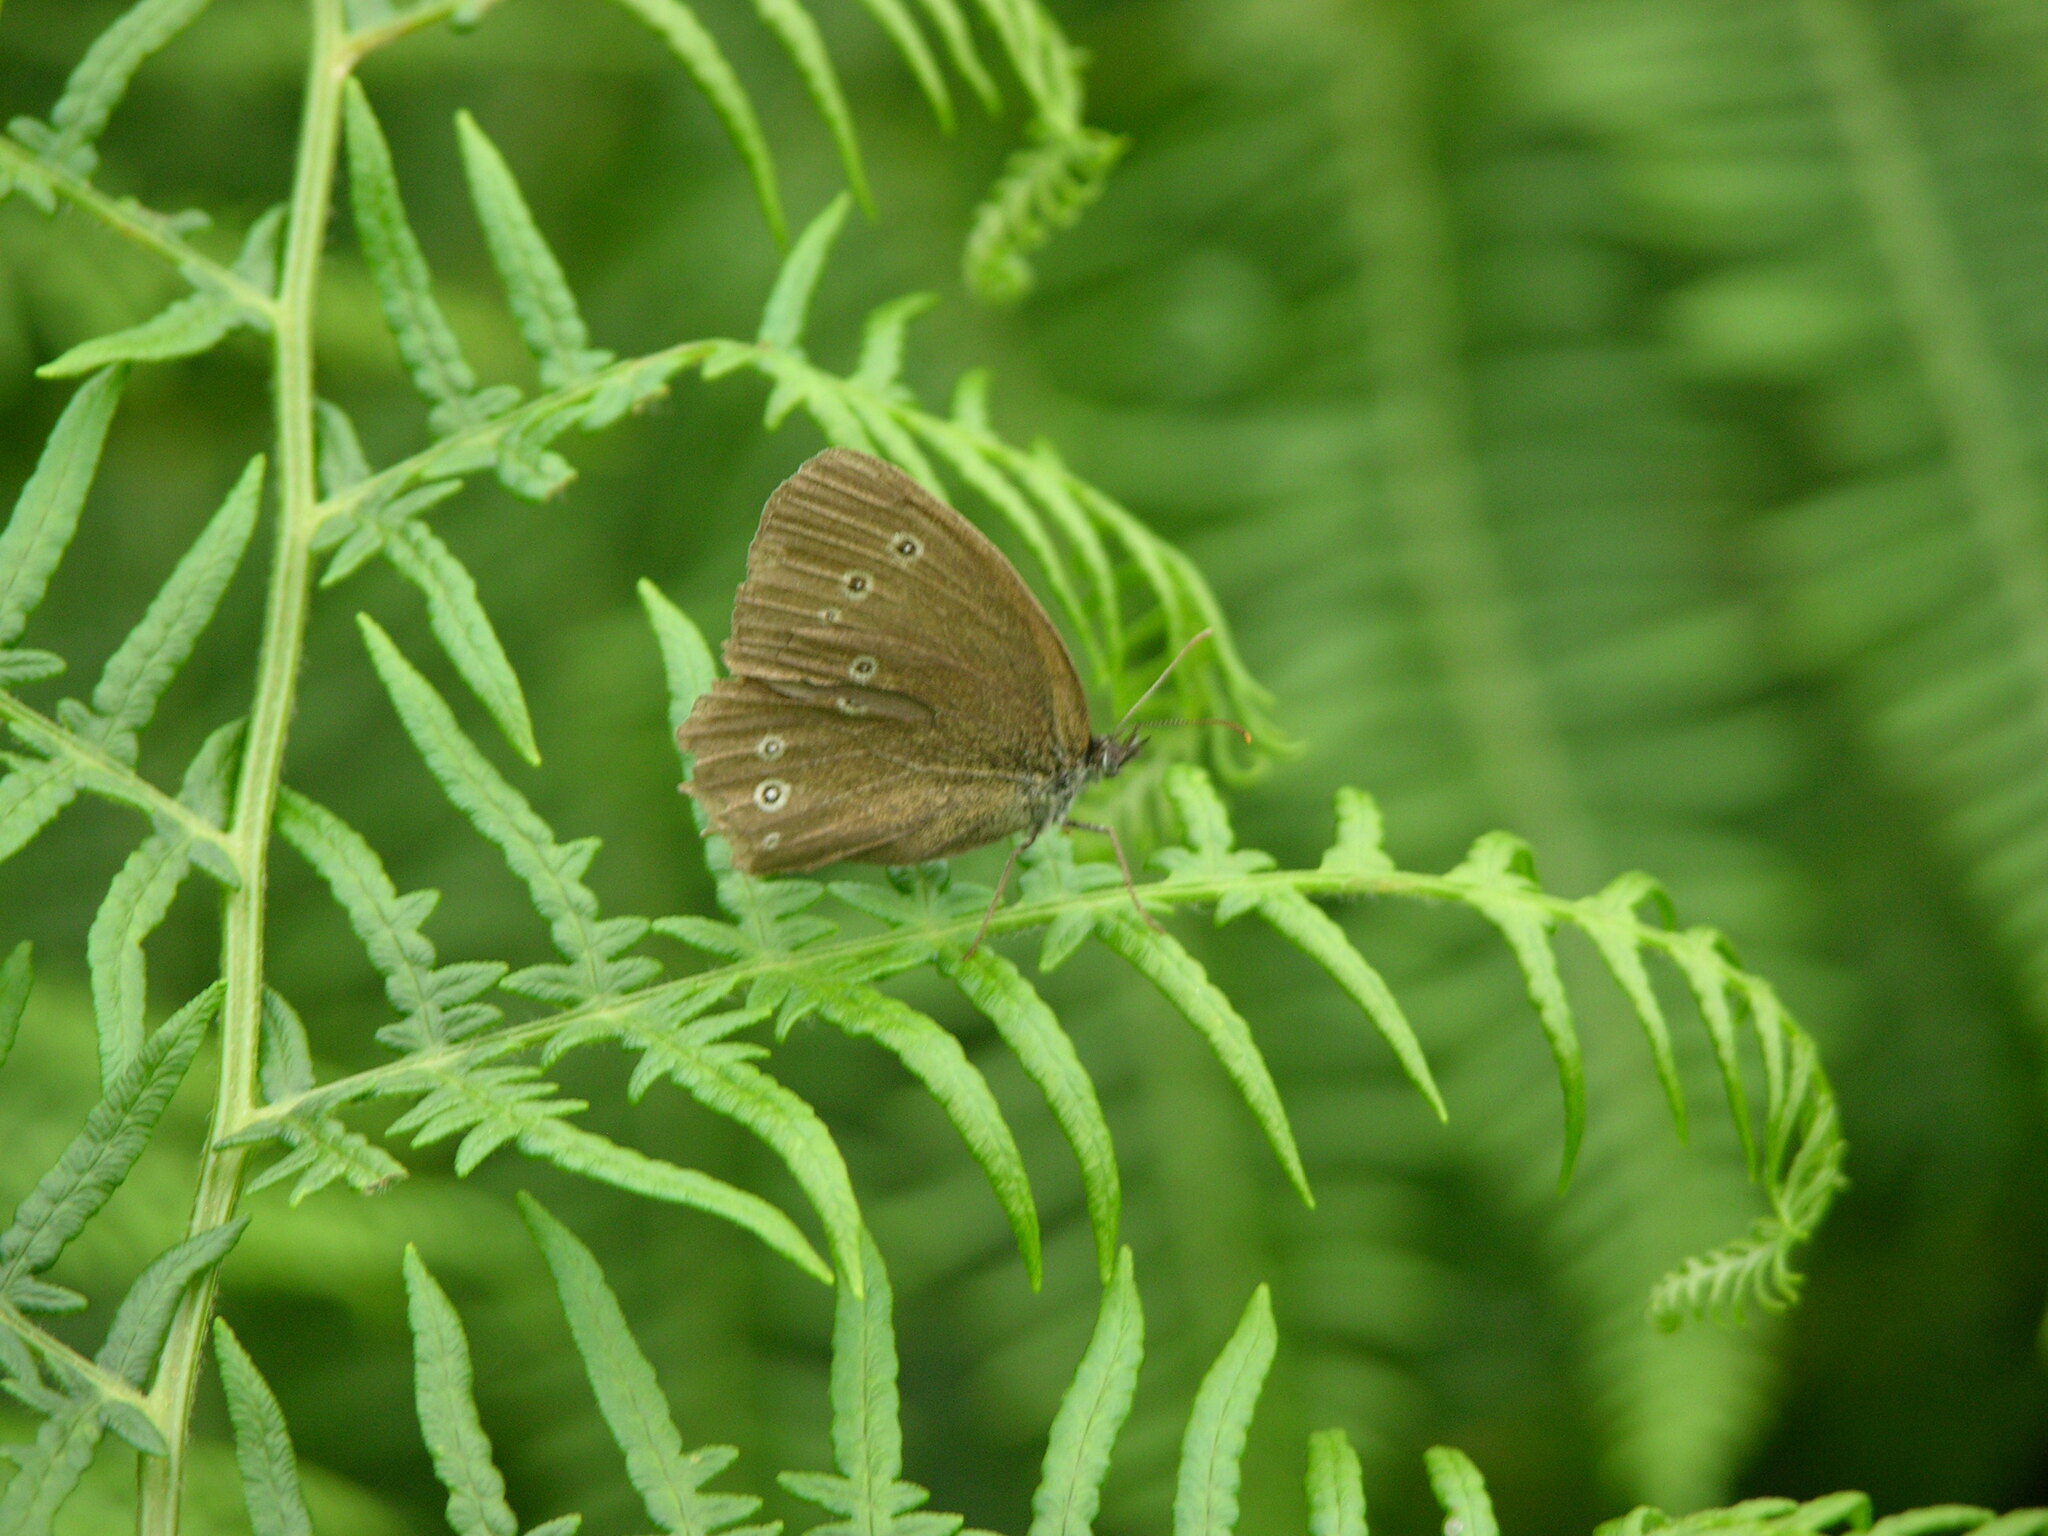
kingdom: Animalia
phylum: Arthropoda
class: Insecta
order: Lepidoptera
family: Nymphalidae
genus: Aphantopus
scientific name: Aphantopus hyperantus
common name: Ringlet
